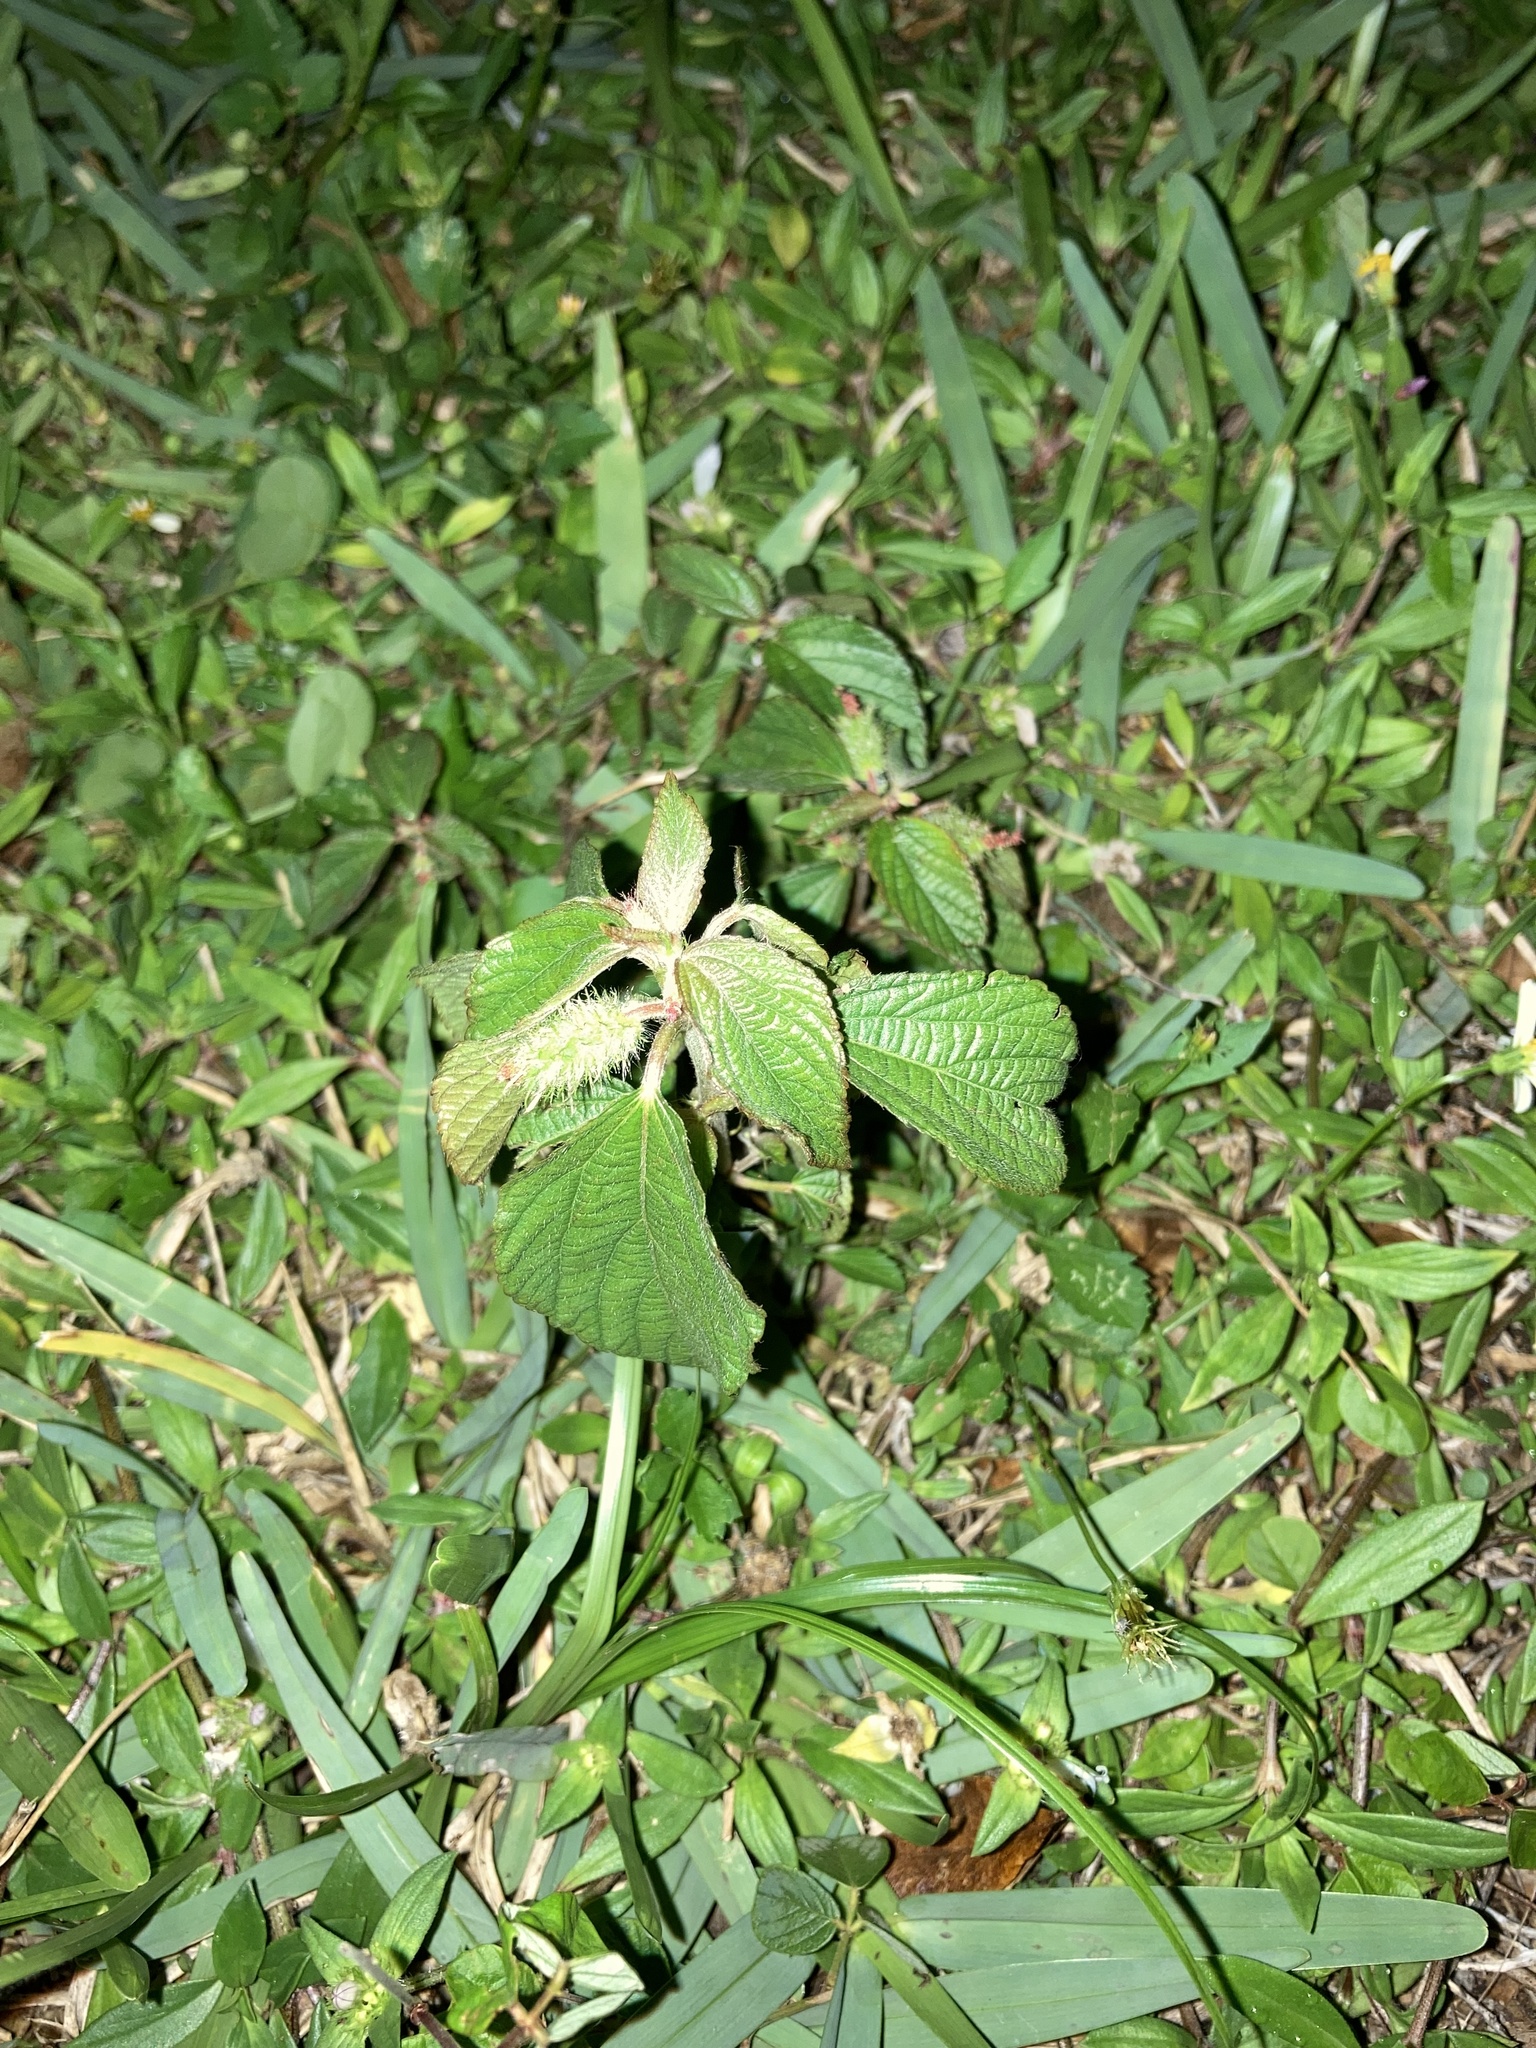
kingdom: Plantae
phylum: Tracheophyta
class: Magnoliopsida
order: Malpighiales
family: Euphorbiaceae
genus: Acalypha
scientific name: Acalypha arvensis
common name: Field copperleaf
